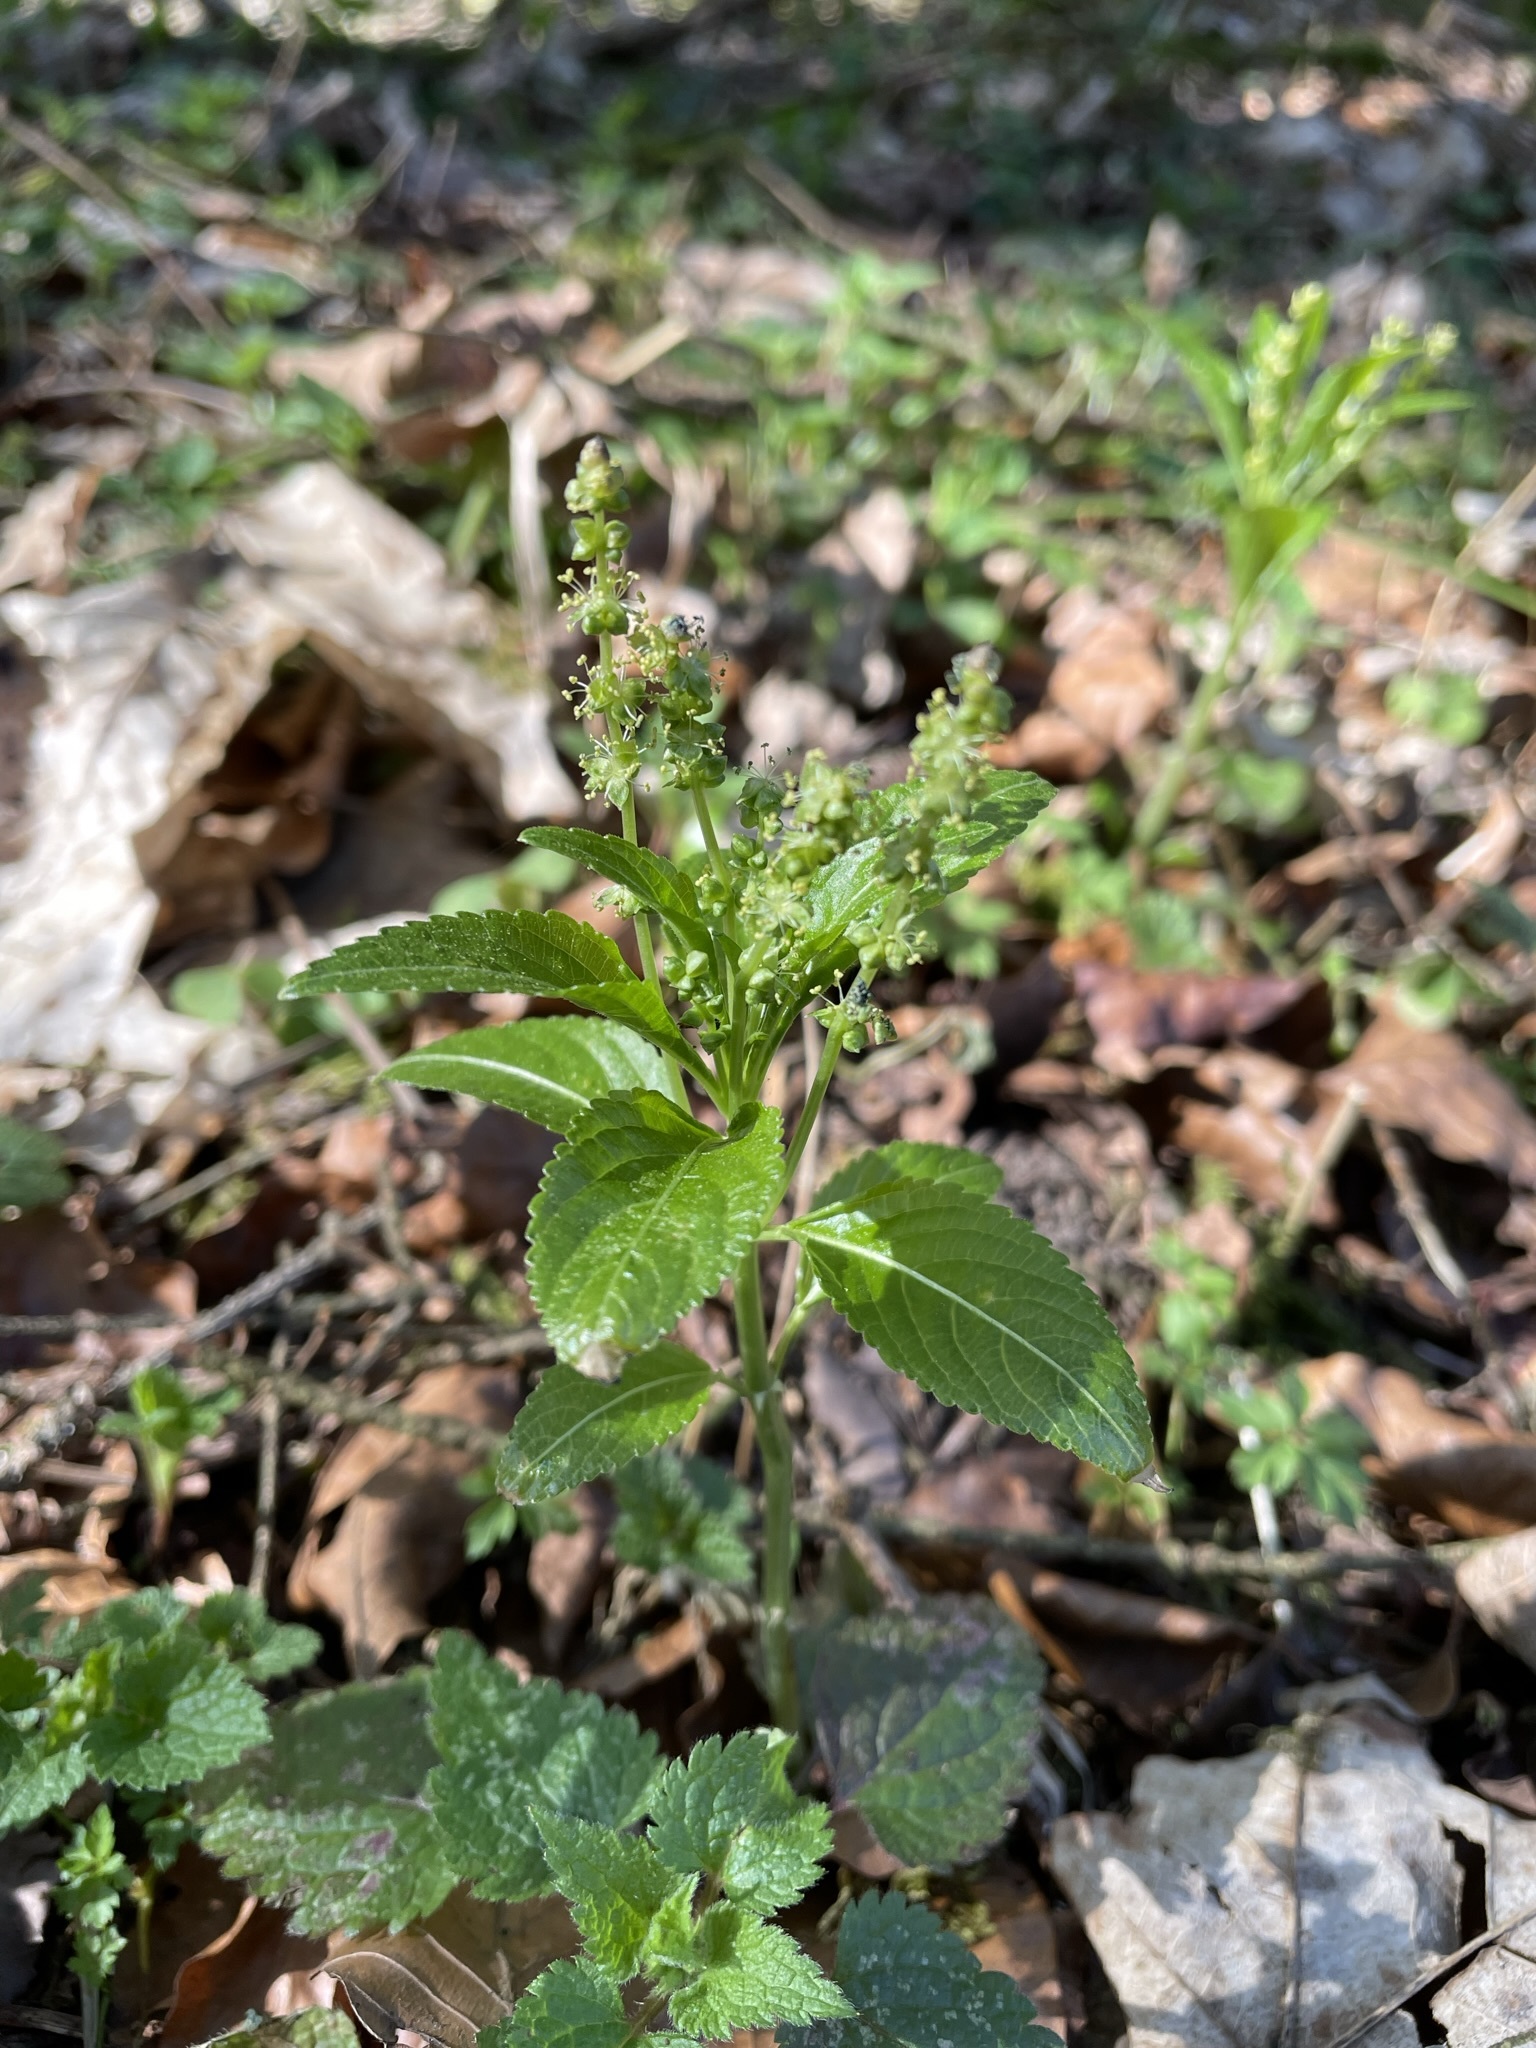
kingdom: Plantae
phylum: Tracheophyta
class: Magnoliopsida
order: Malpighiales
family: Euphorbiaceae
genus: Mercurialis
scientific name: Mercurialis perennis
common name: Dog mercury
